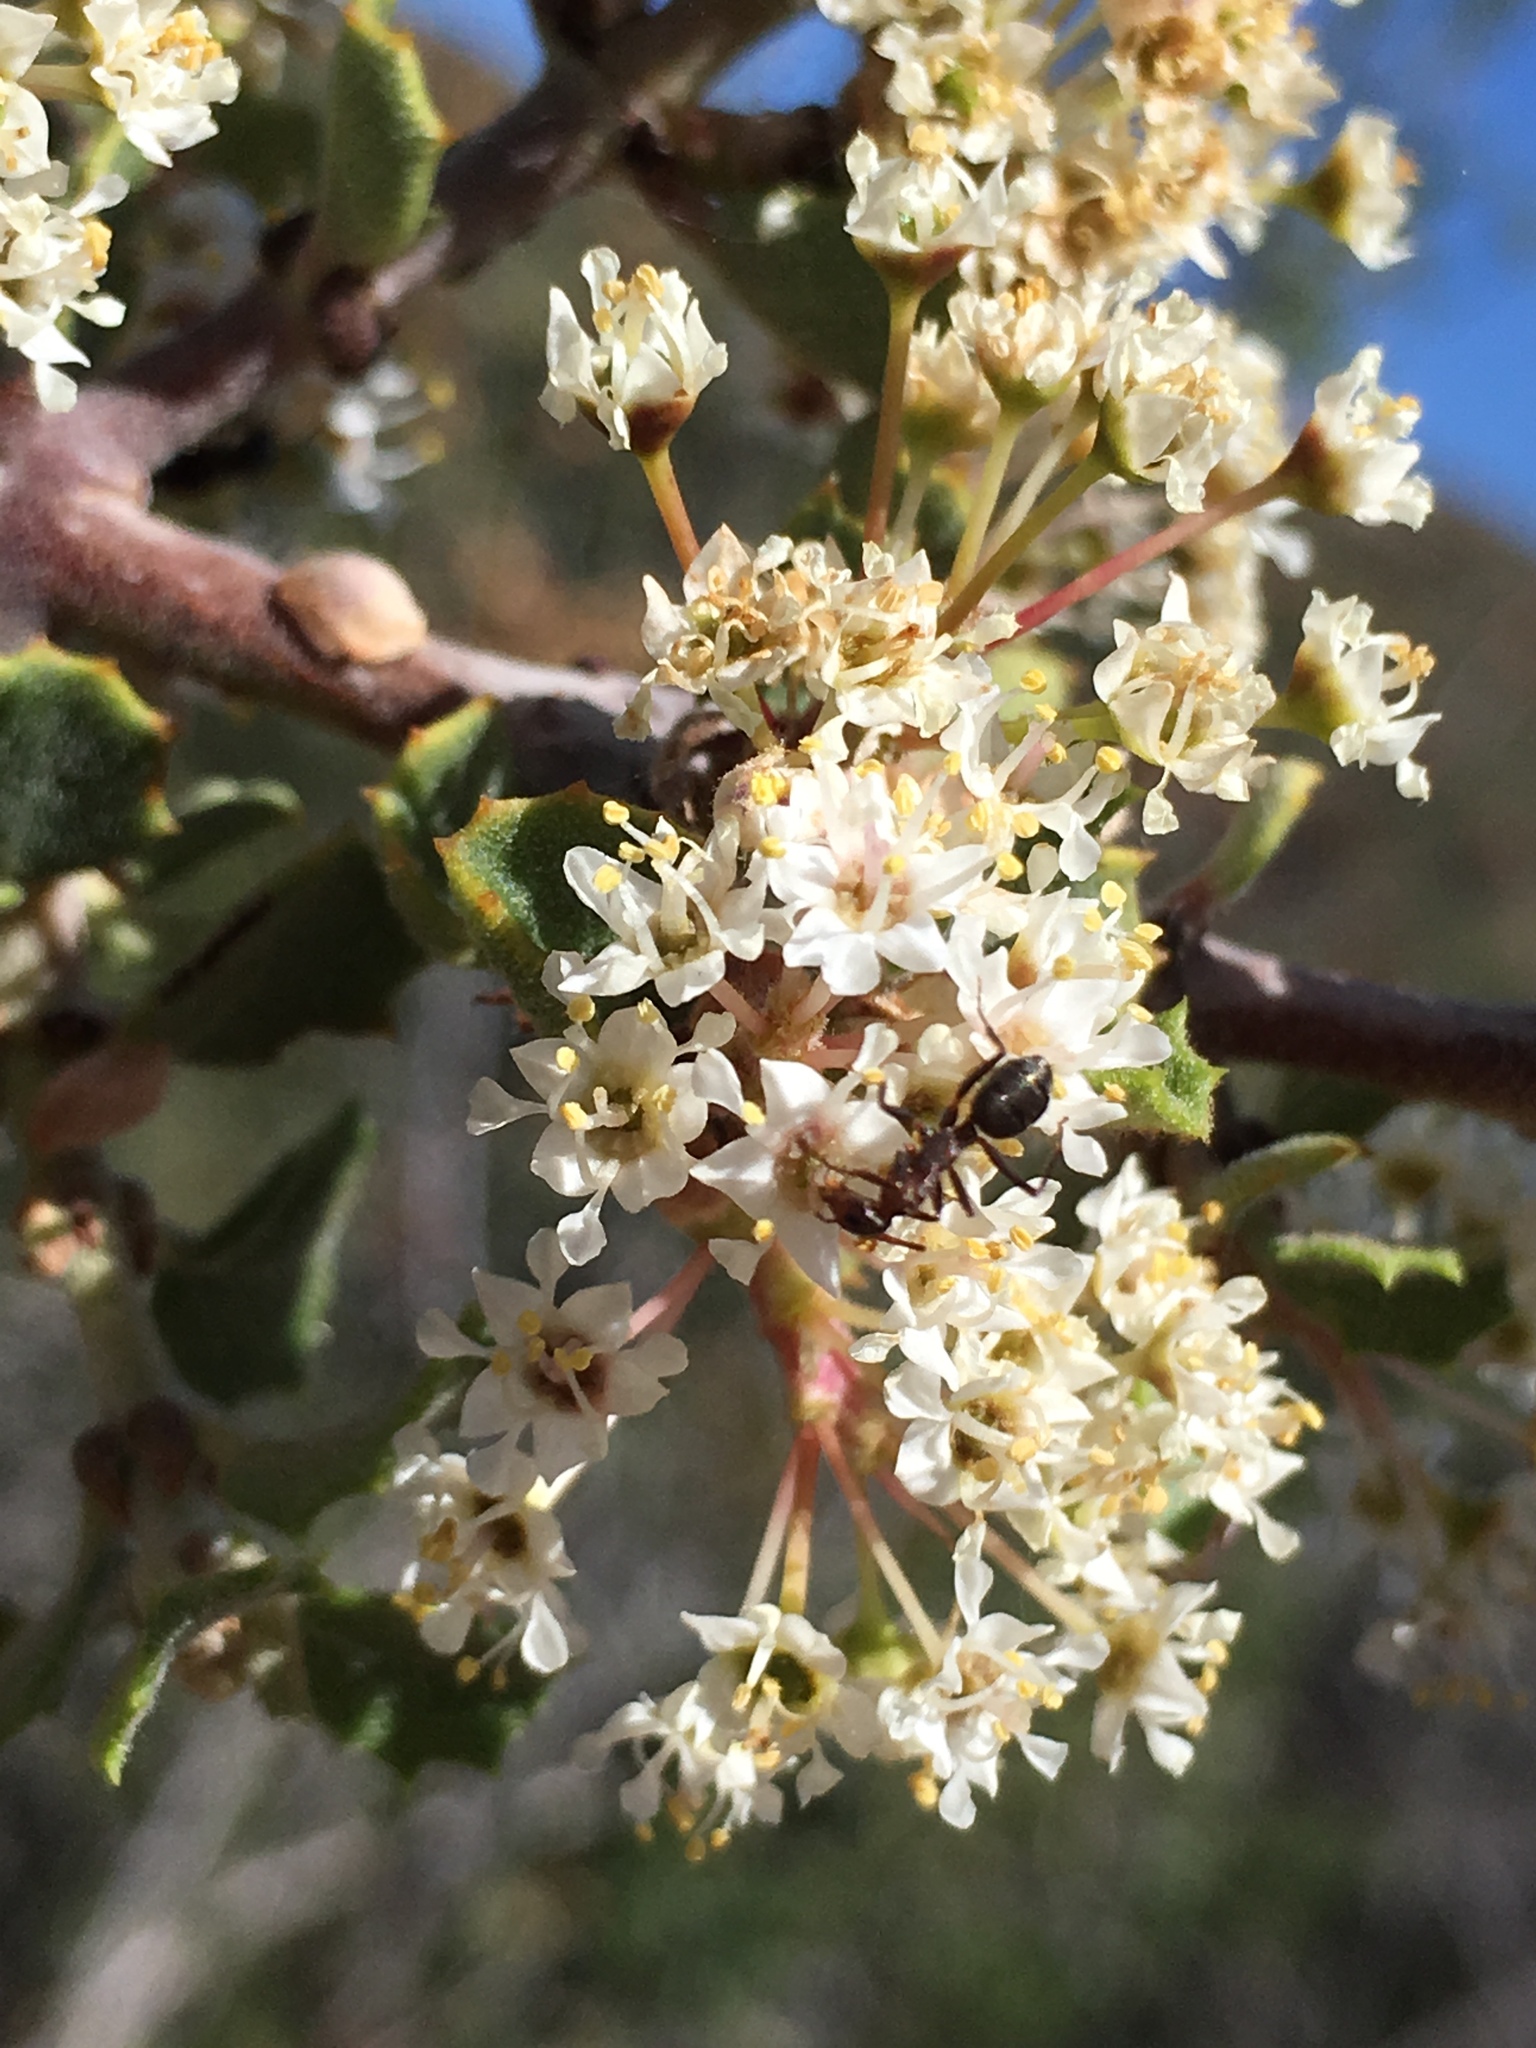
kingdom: Plantae
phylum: Tracheophyta
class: Magnoliopsida
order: Rosales
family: Rhamnaceae
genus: Ceanothus
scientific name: Ceanothus perplexans
